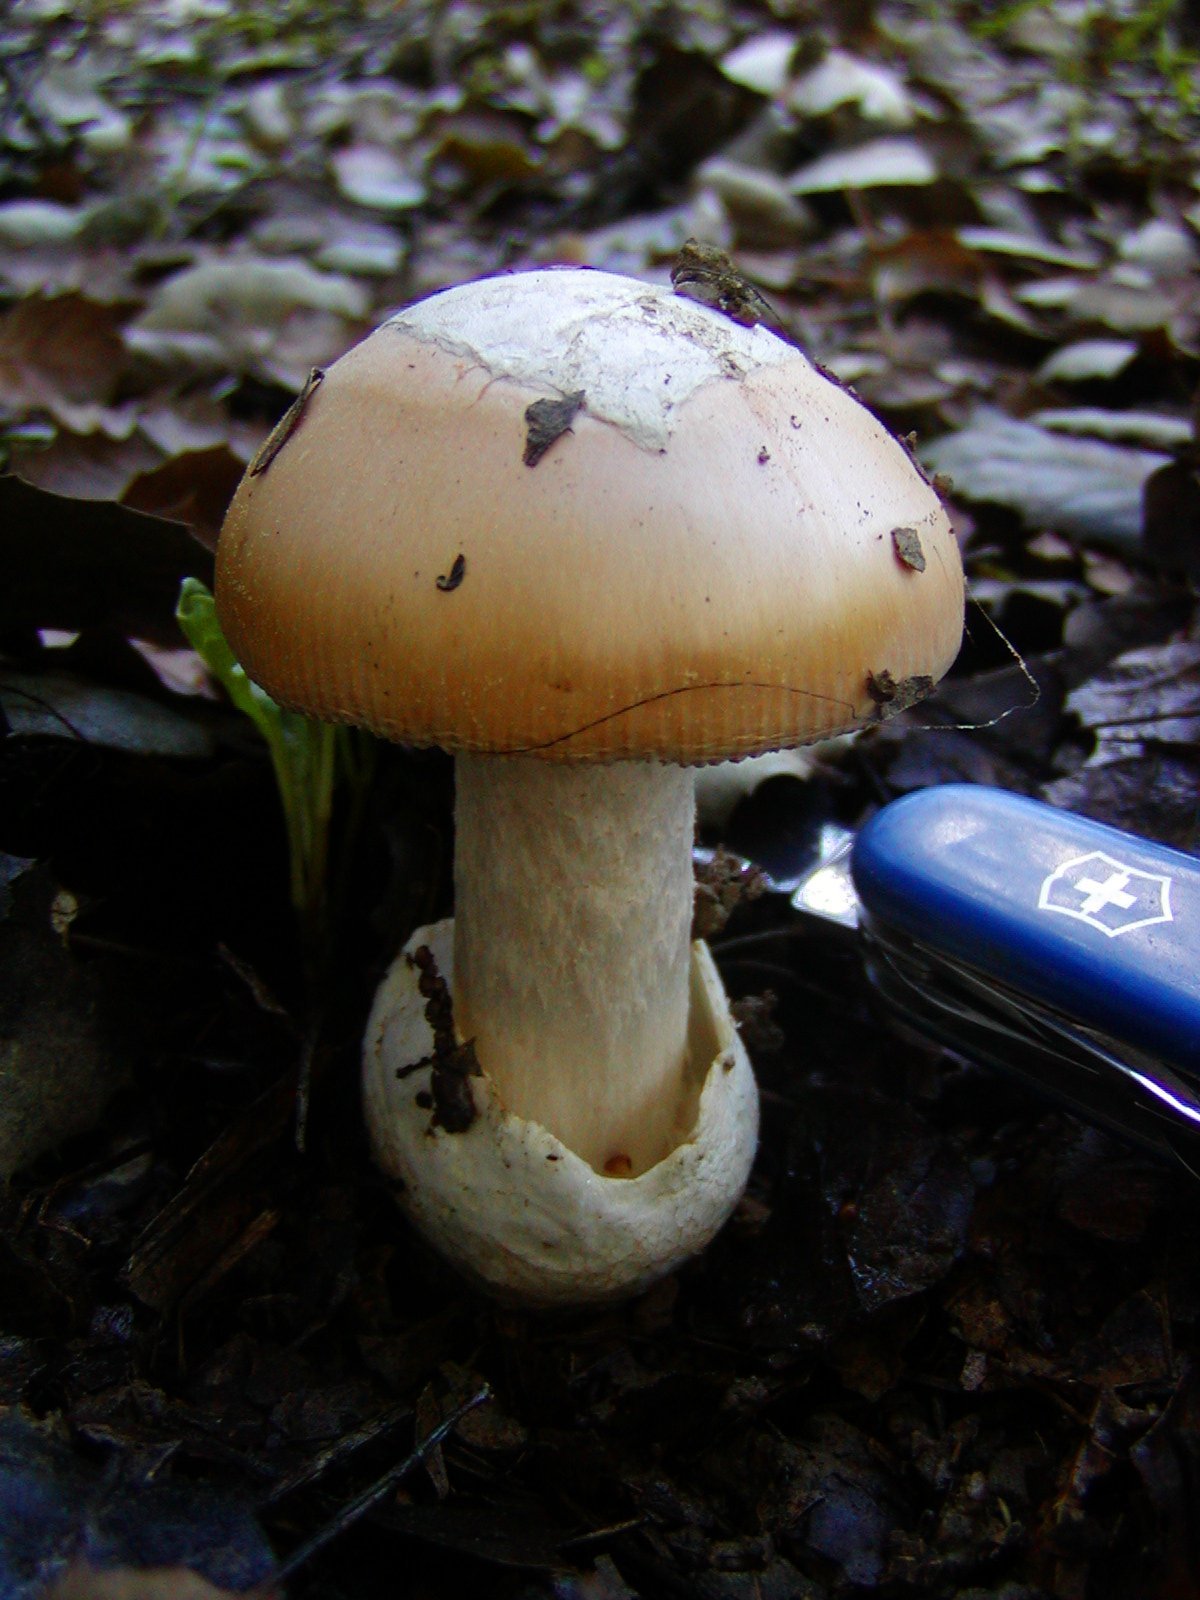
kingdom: Fungi
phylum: Basidiomycota
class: Agaricomycetes
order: Agaricales
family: Amanitaceae
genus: Amanita
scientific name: Amanita velosa
